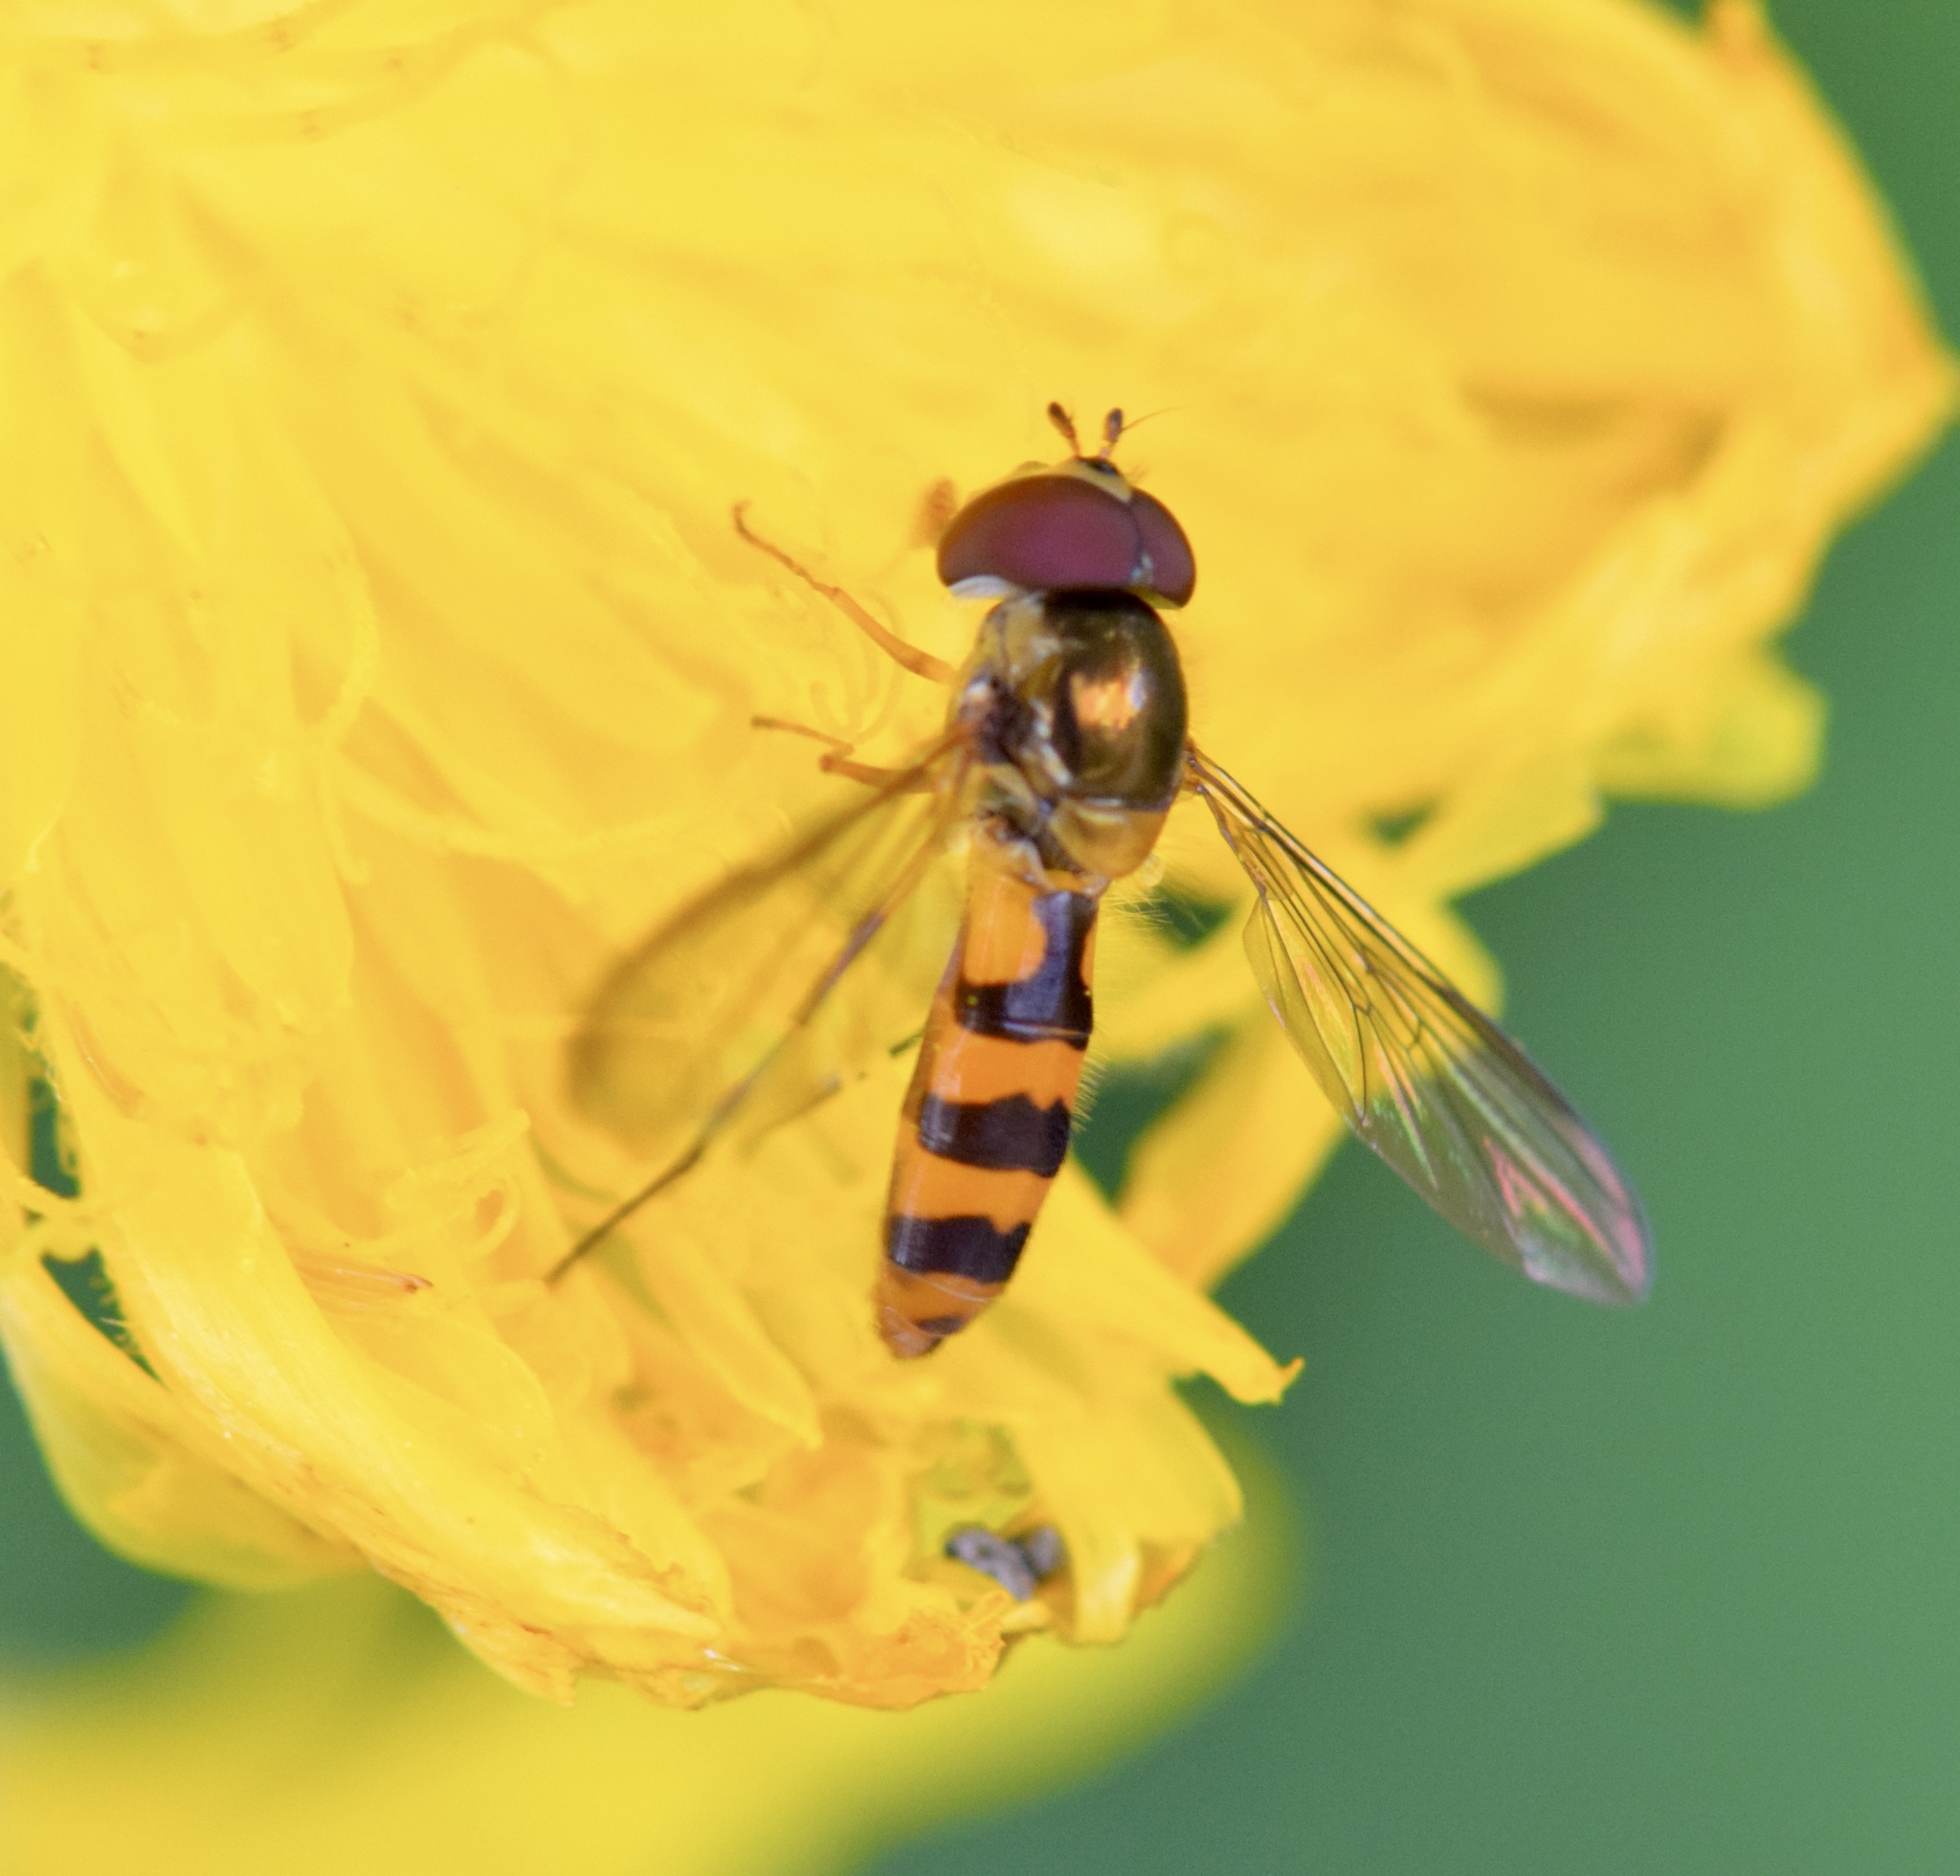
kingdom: Animalia
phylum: Arthropoda
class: Insecta
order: Diptera
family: Syrphidae
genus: Meliscaeva
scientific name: Meliscaeva cinctella
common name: American thintail fly
